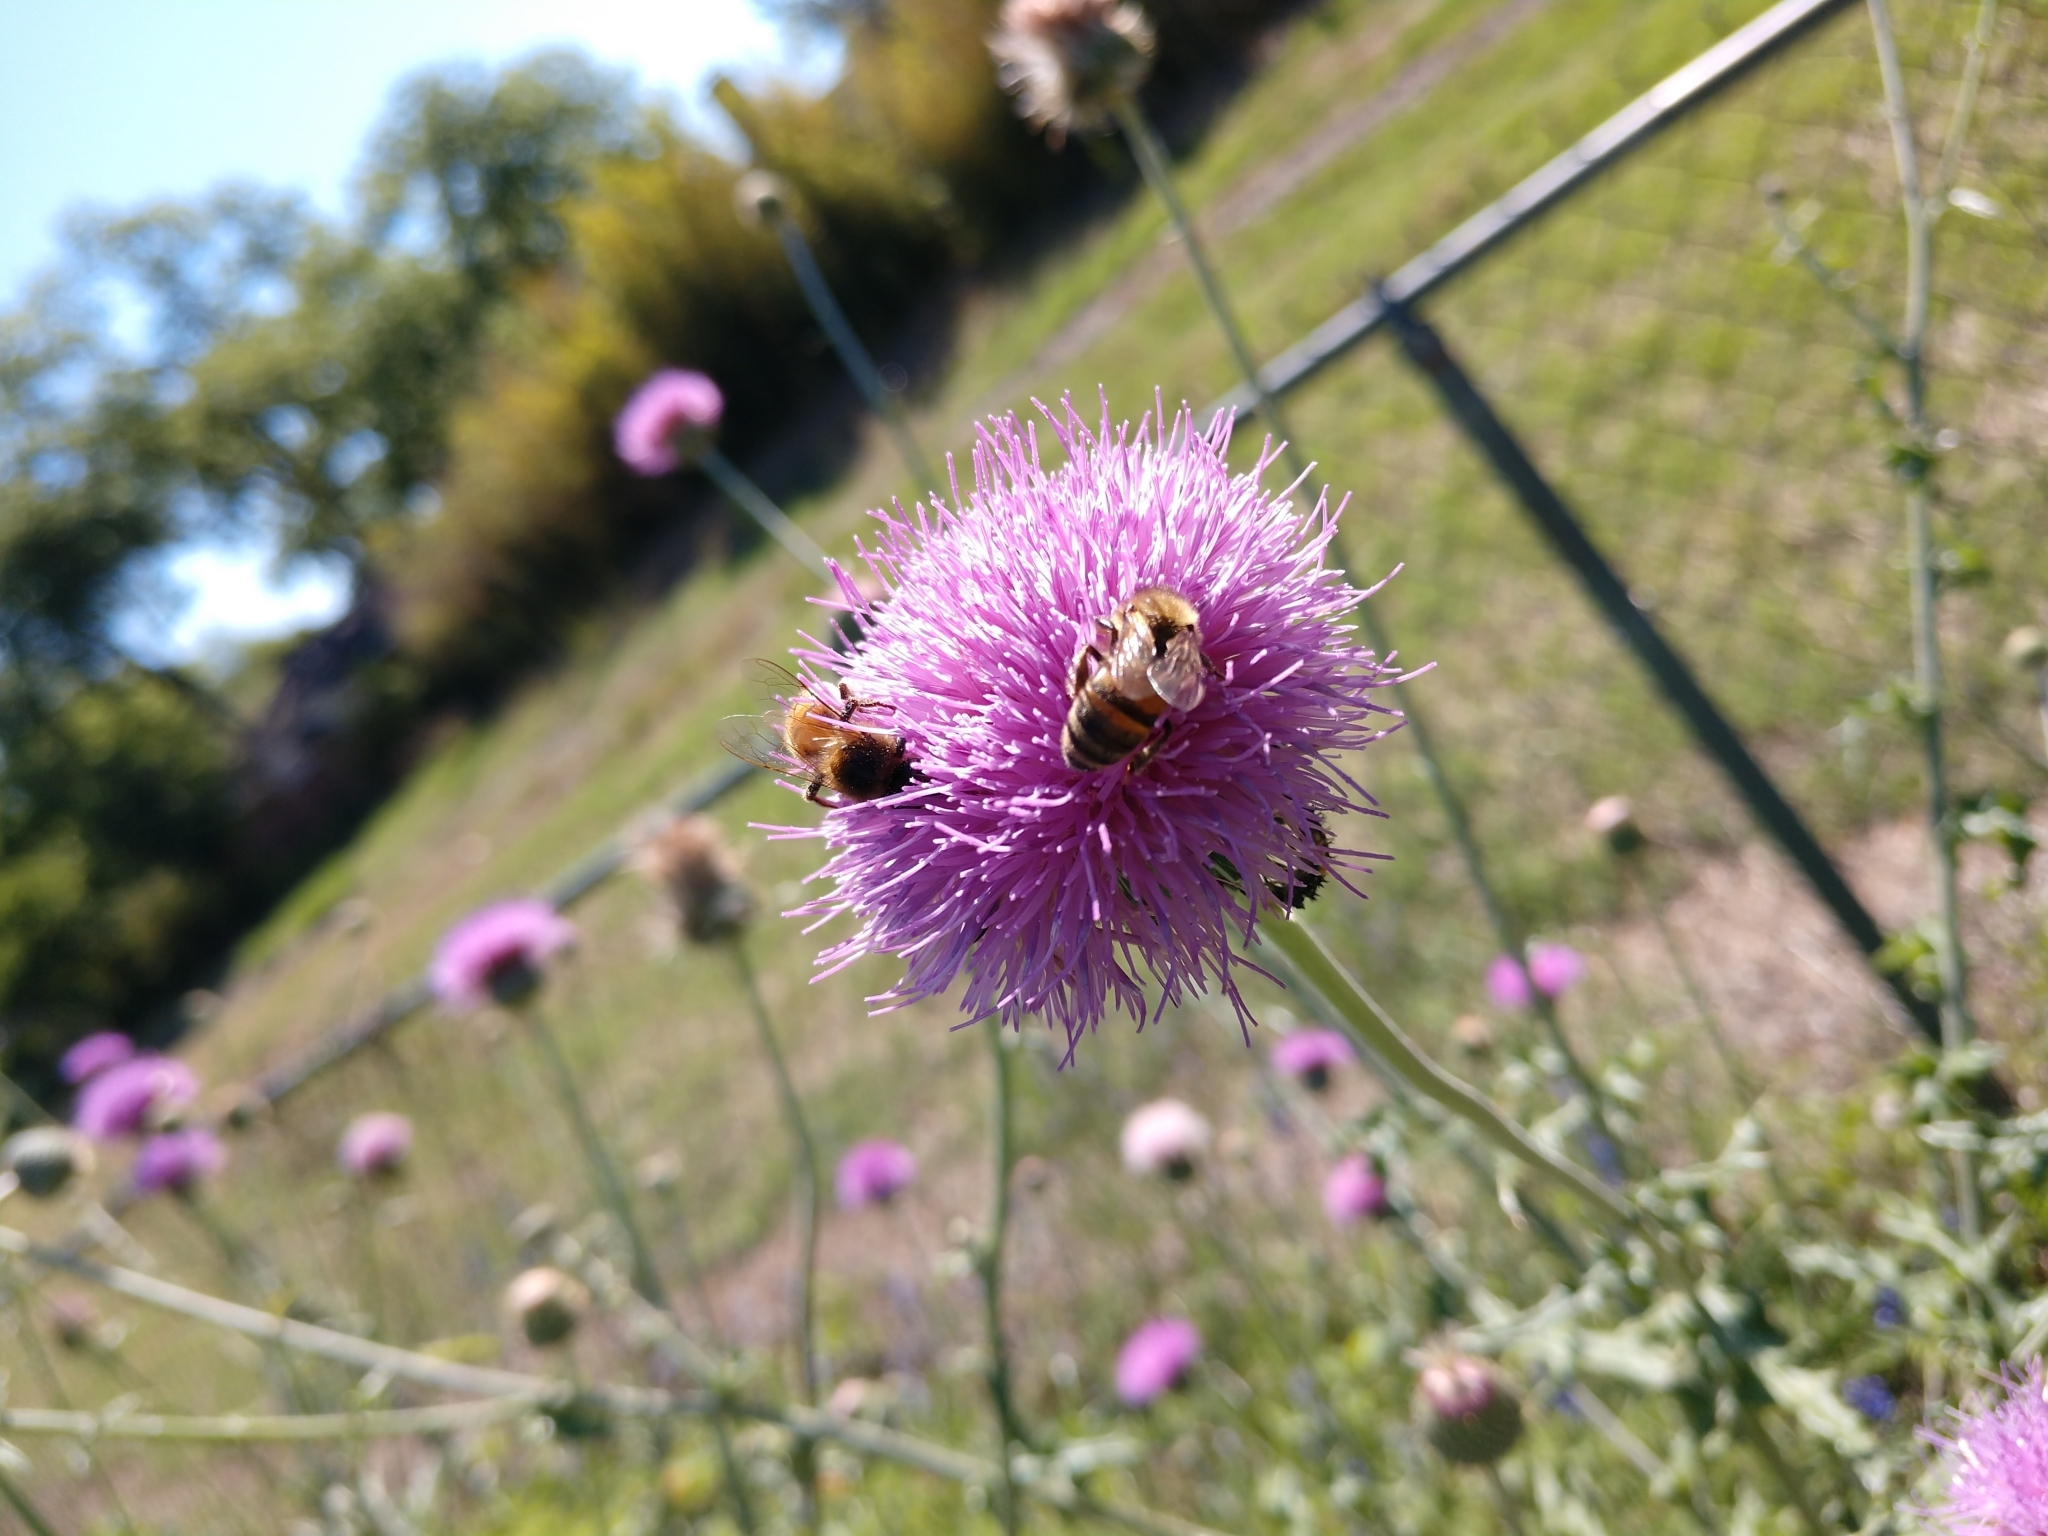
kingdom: Animalia
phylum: Arthropoda
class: Insecta
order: Hymenoptera
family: Apidae
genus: Apis
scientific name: Apis mellifera
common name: Honey bee
